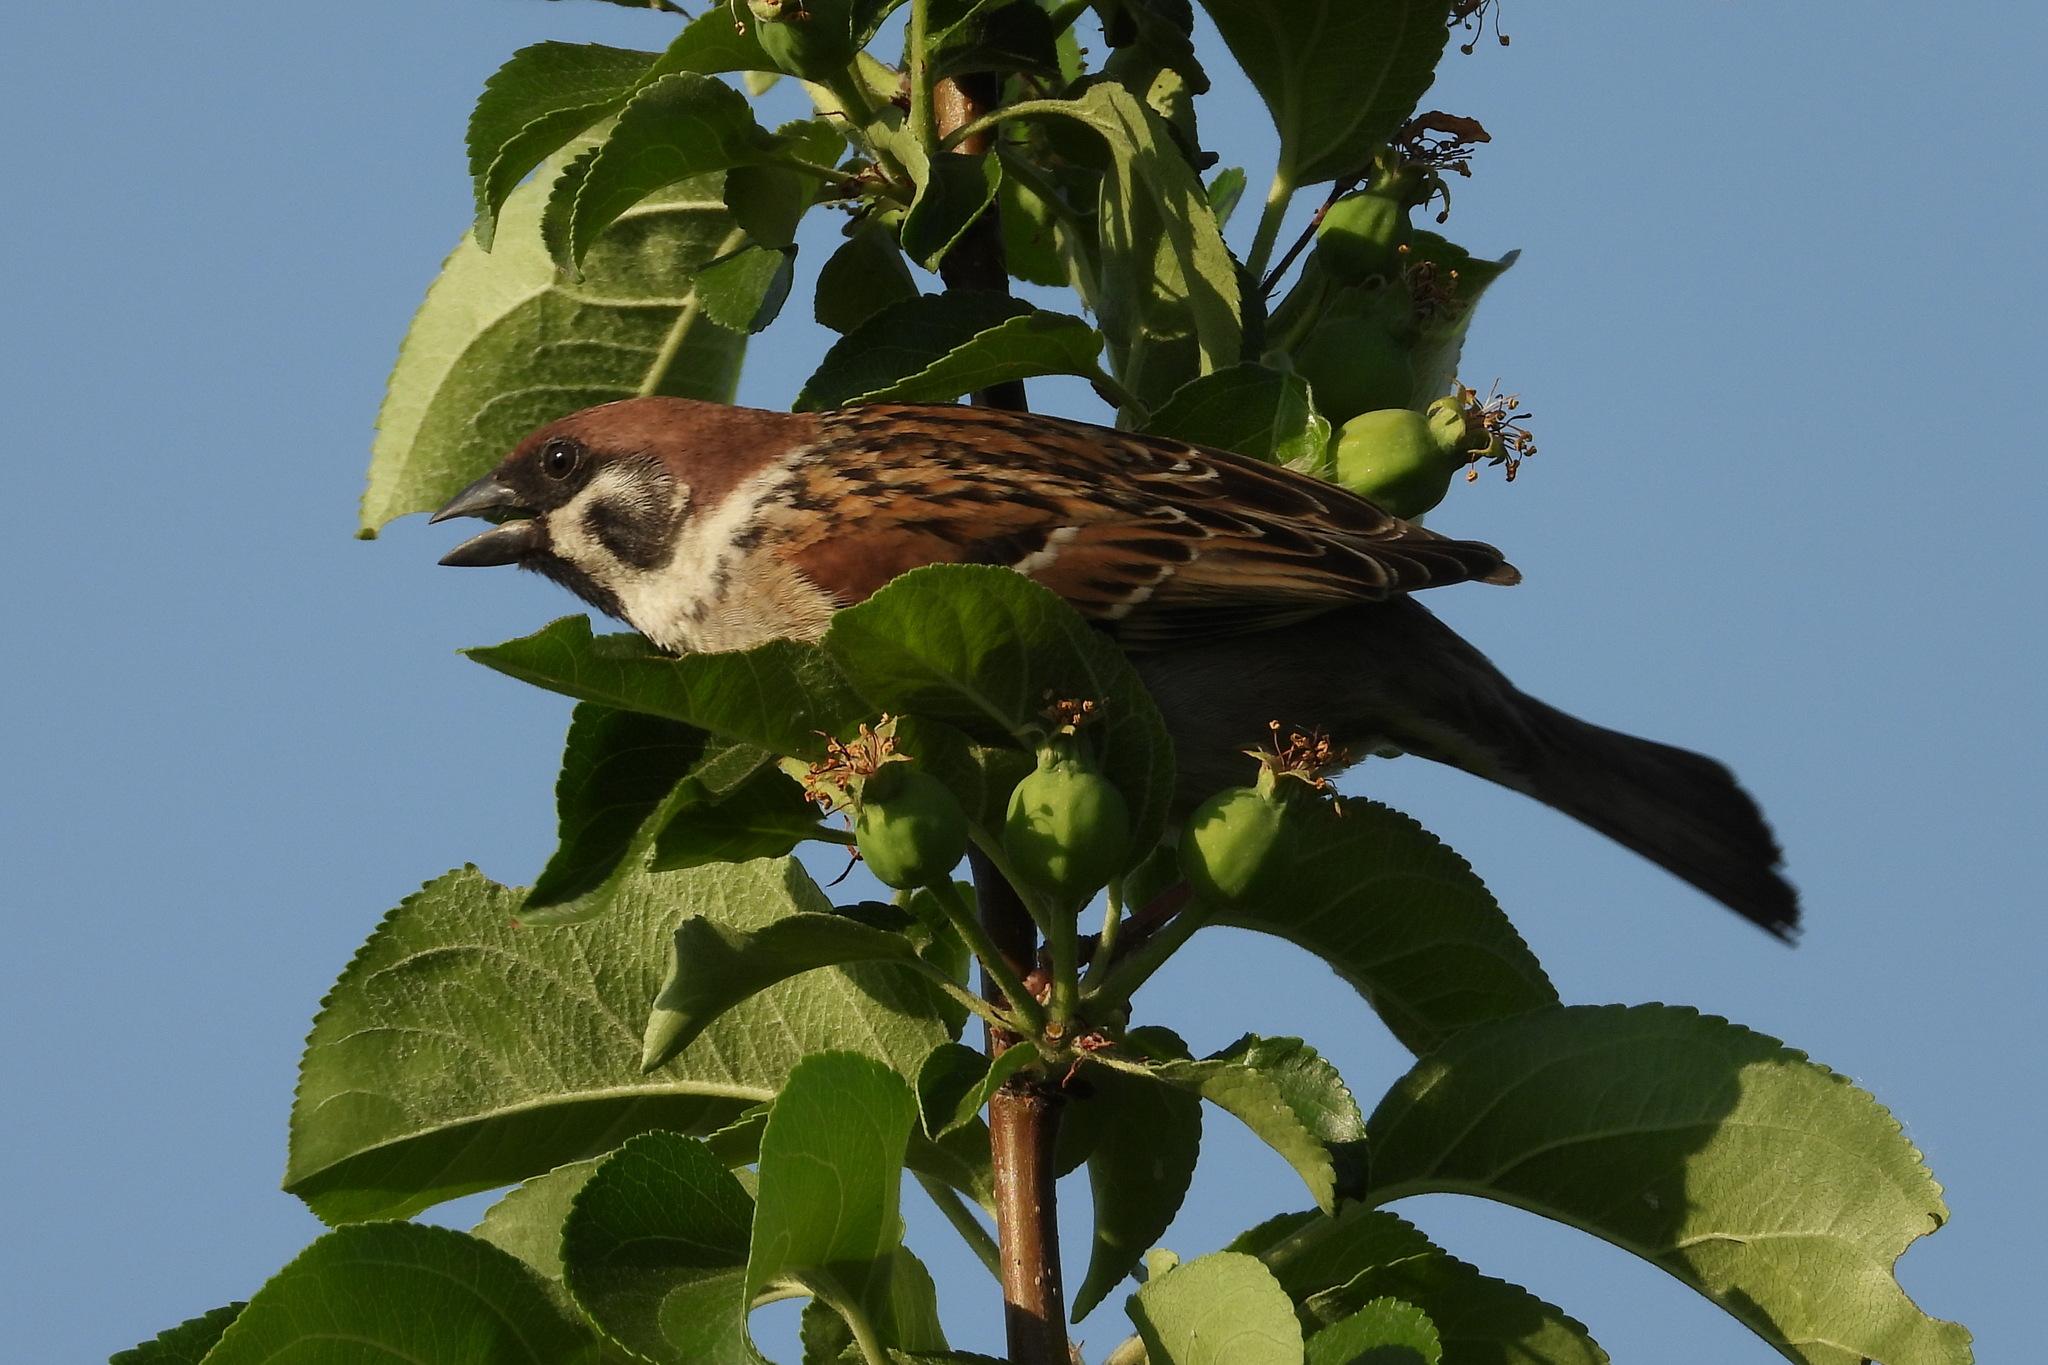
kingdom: Animalia
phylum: Chordata
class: Aves
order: Passeriformes
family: Passeridae
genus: Passer
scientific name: Passer montanus
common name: Eurasian tree sparrow
